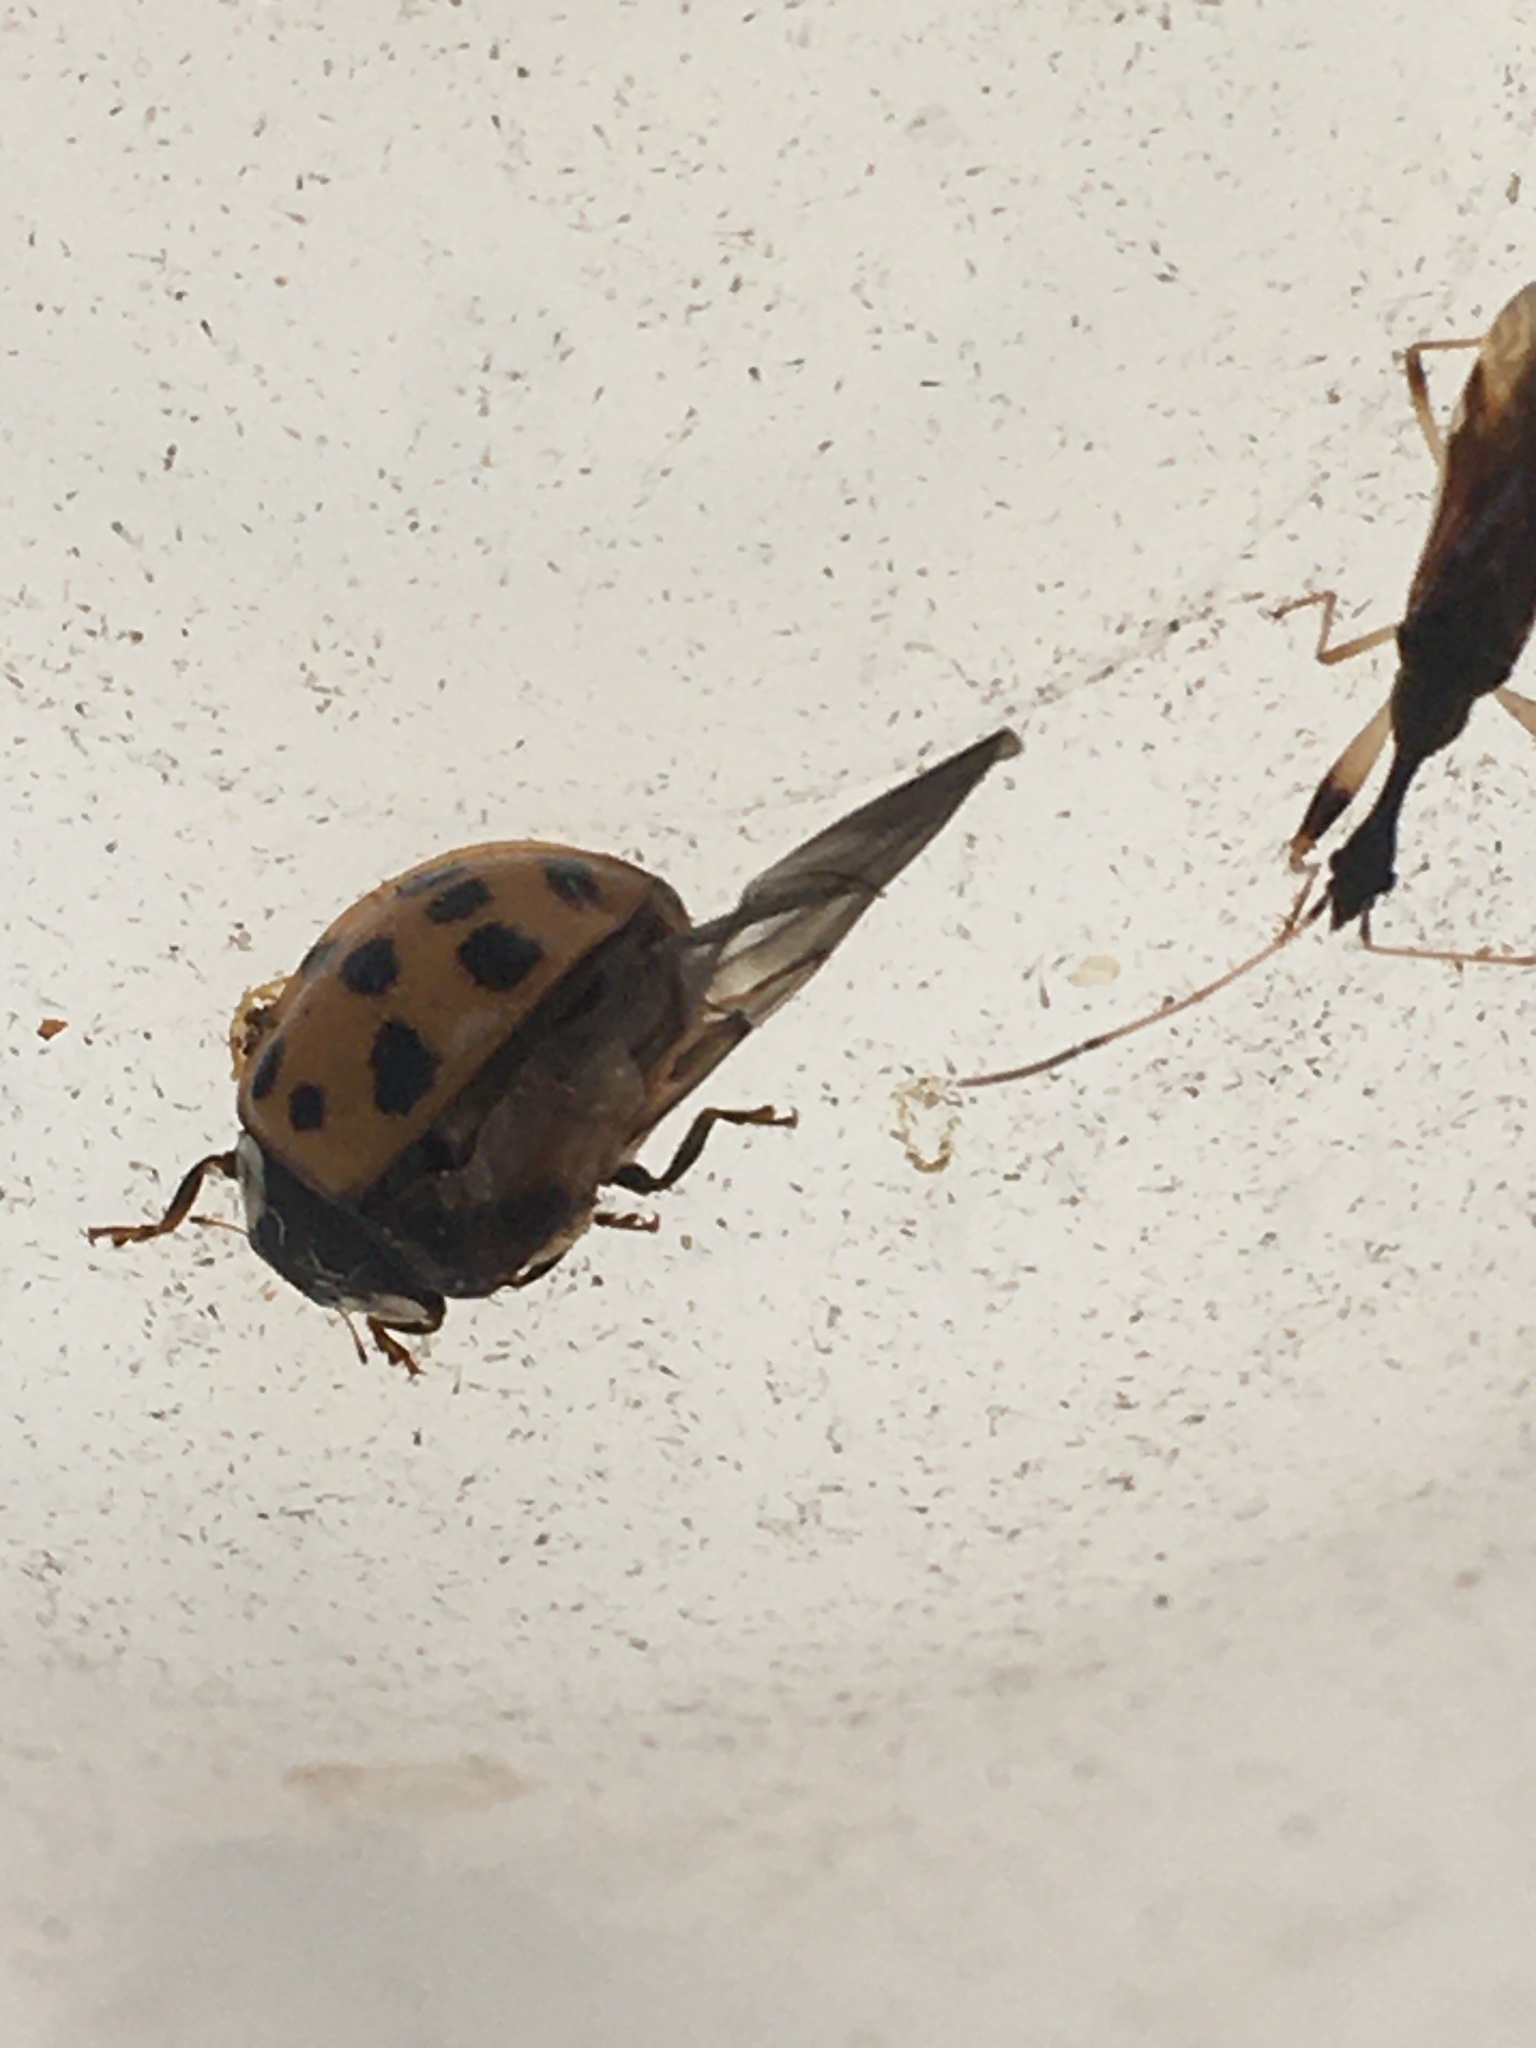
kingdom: Animalia
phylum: Arthropoda
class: Insecta
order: Coleoptera
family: Coccinellidae
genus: Harmonia
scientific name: Harmonia axyridis
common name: Harlequin ladybird
